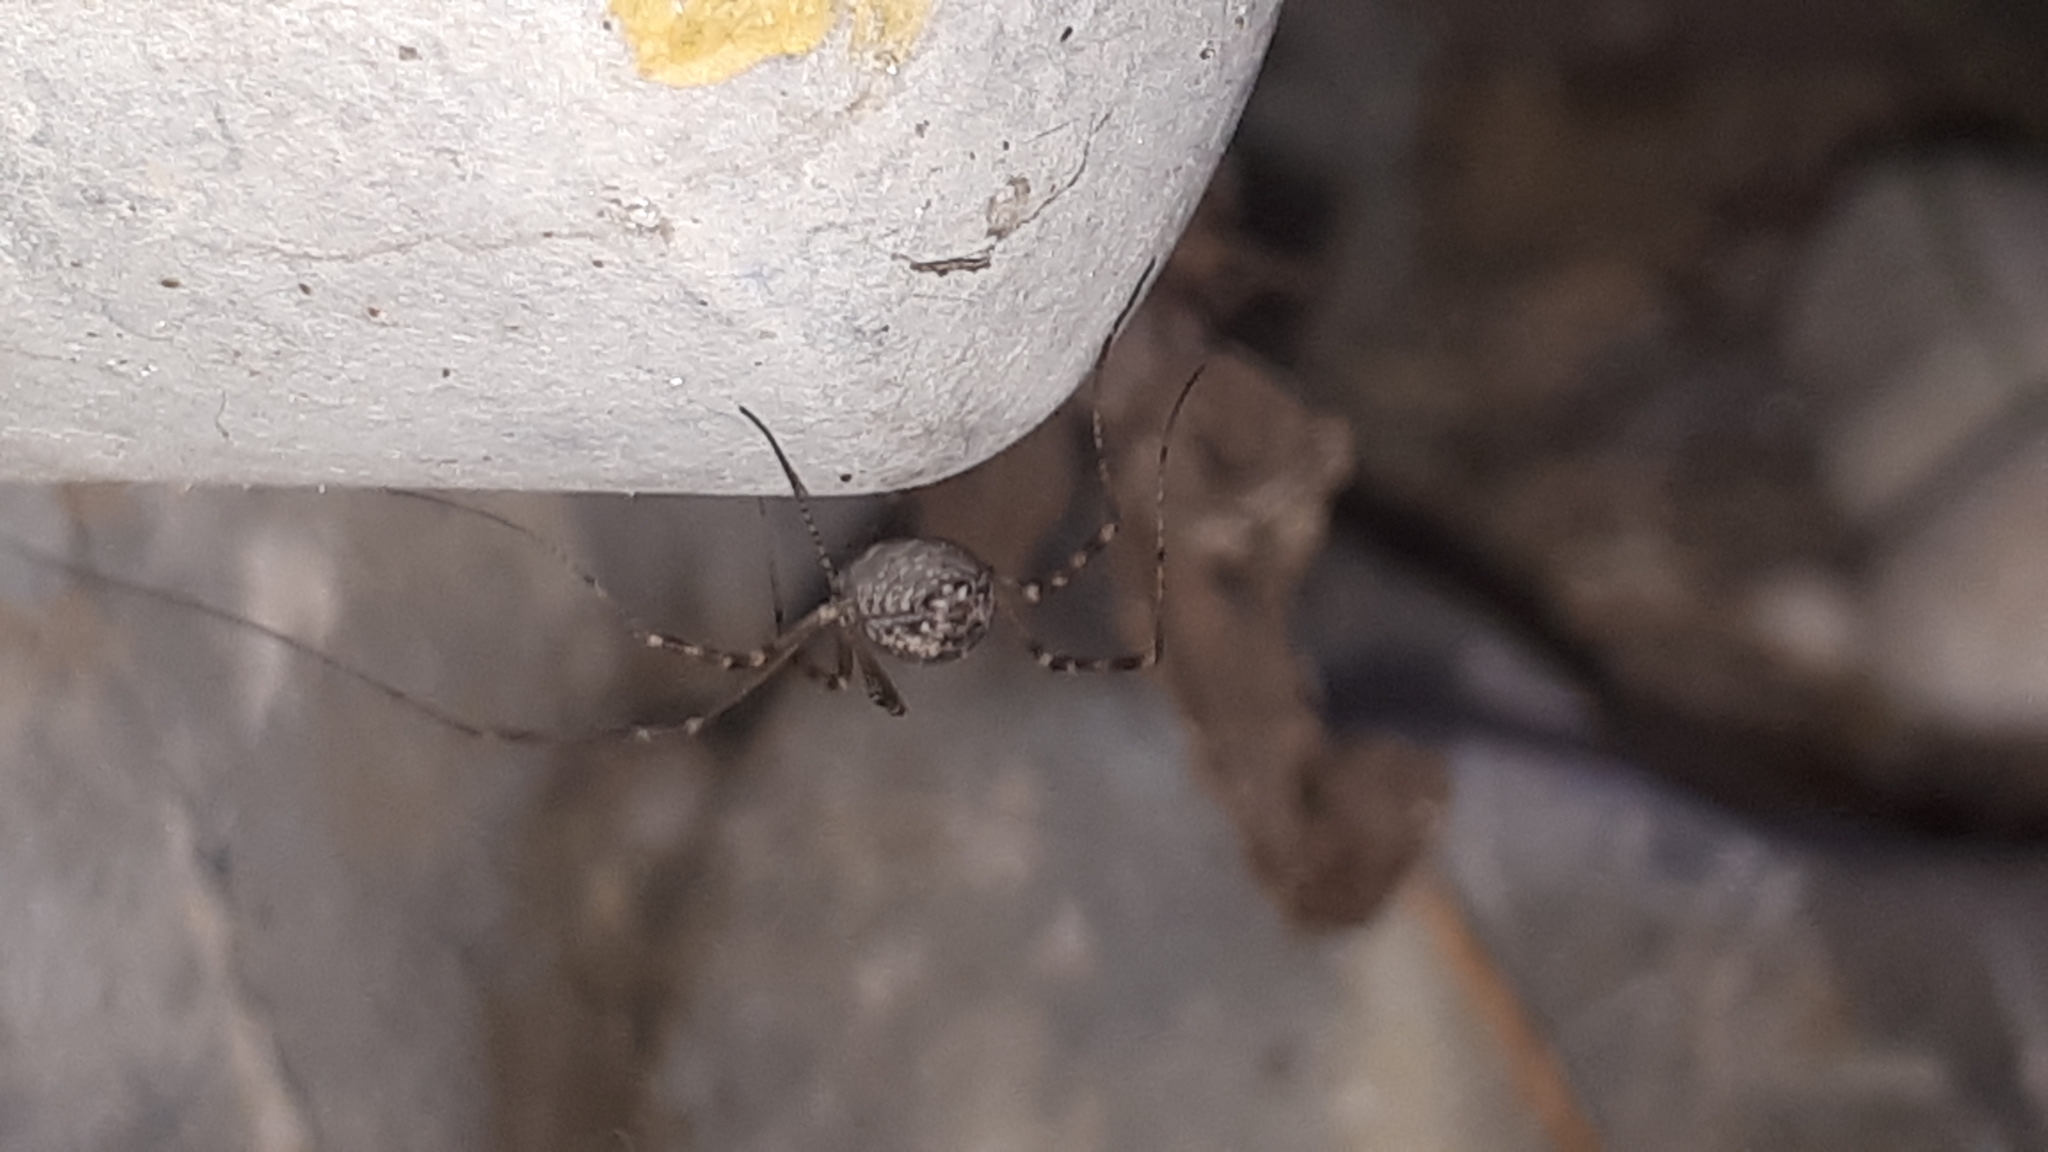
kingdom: Animalia
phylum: Arthropoda
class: Arachnida
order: Opiliones
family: Phalangiidae
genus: Opilio
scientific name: Opilio saxatilis
